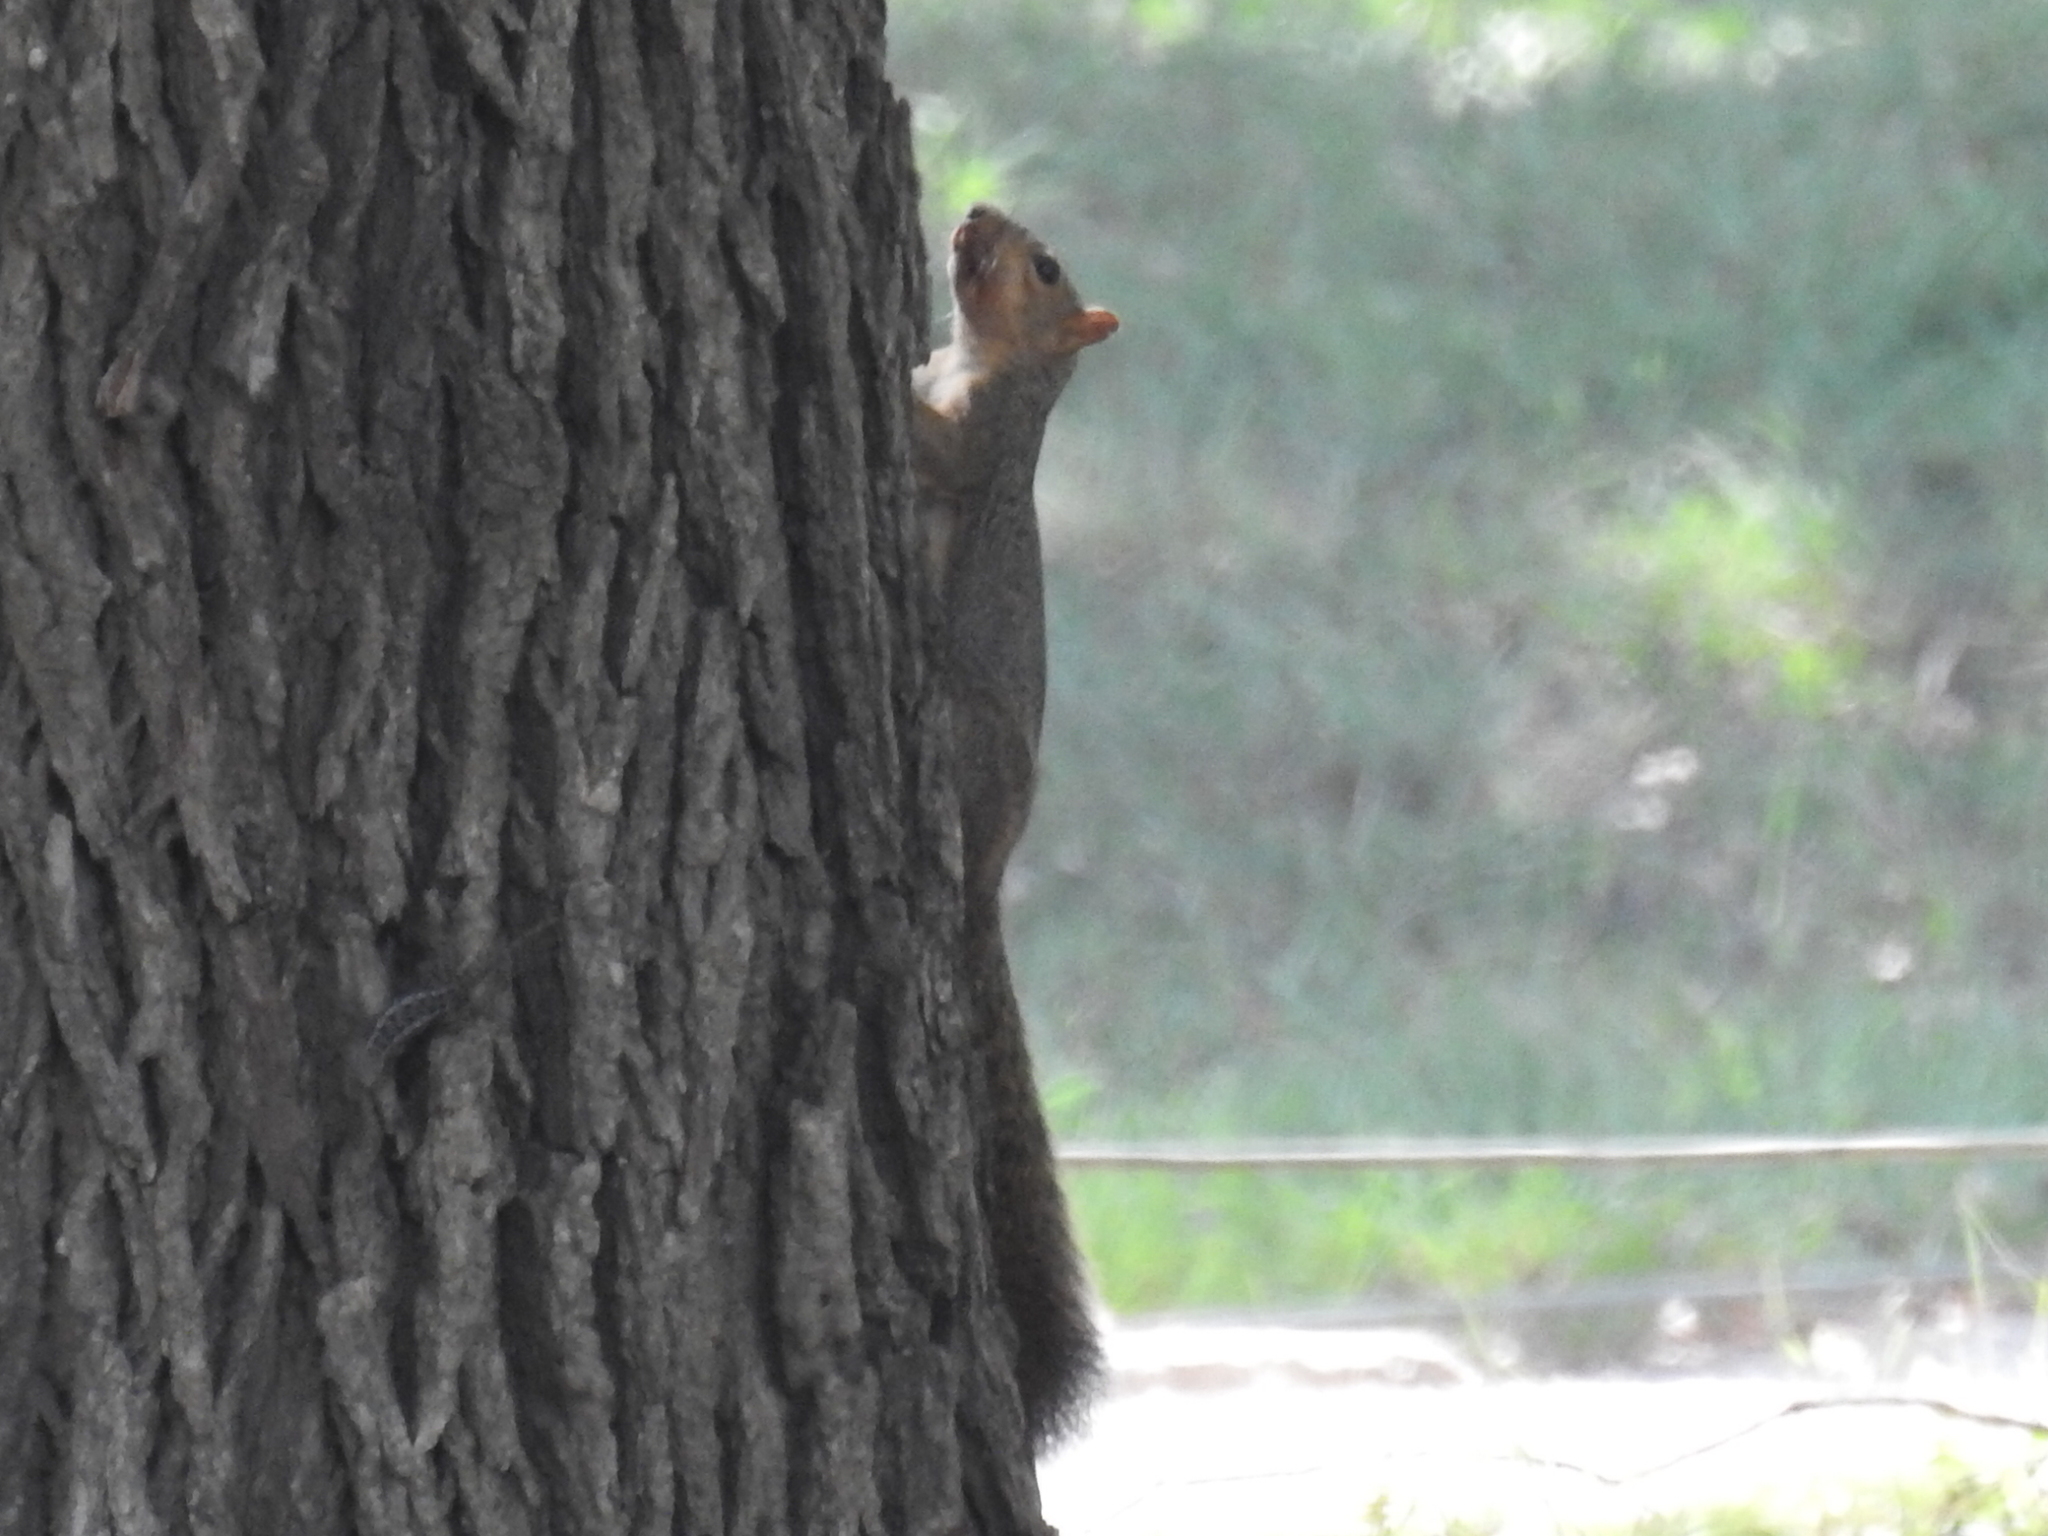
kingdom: Animalia
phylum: Chordata
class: Mammalia
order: Rodentia
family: Sciuridae
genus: Sciurus
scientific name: Sciurus niger
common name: Fox squirrel
